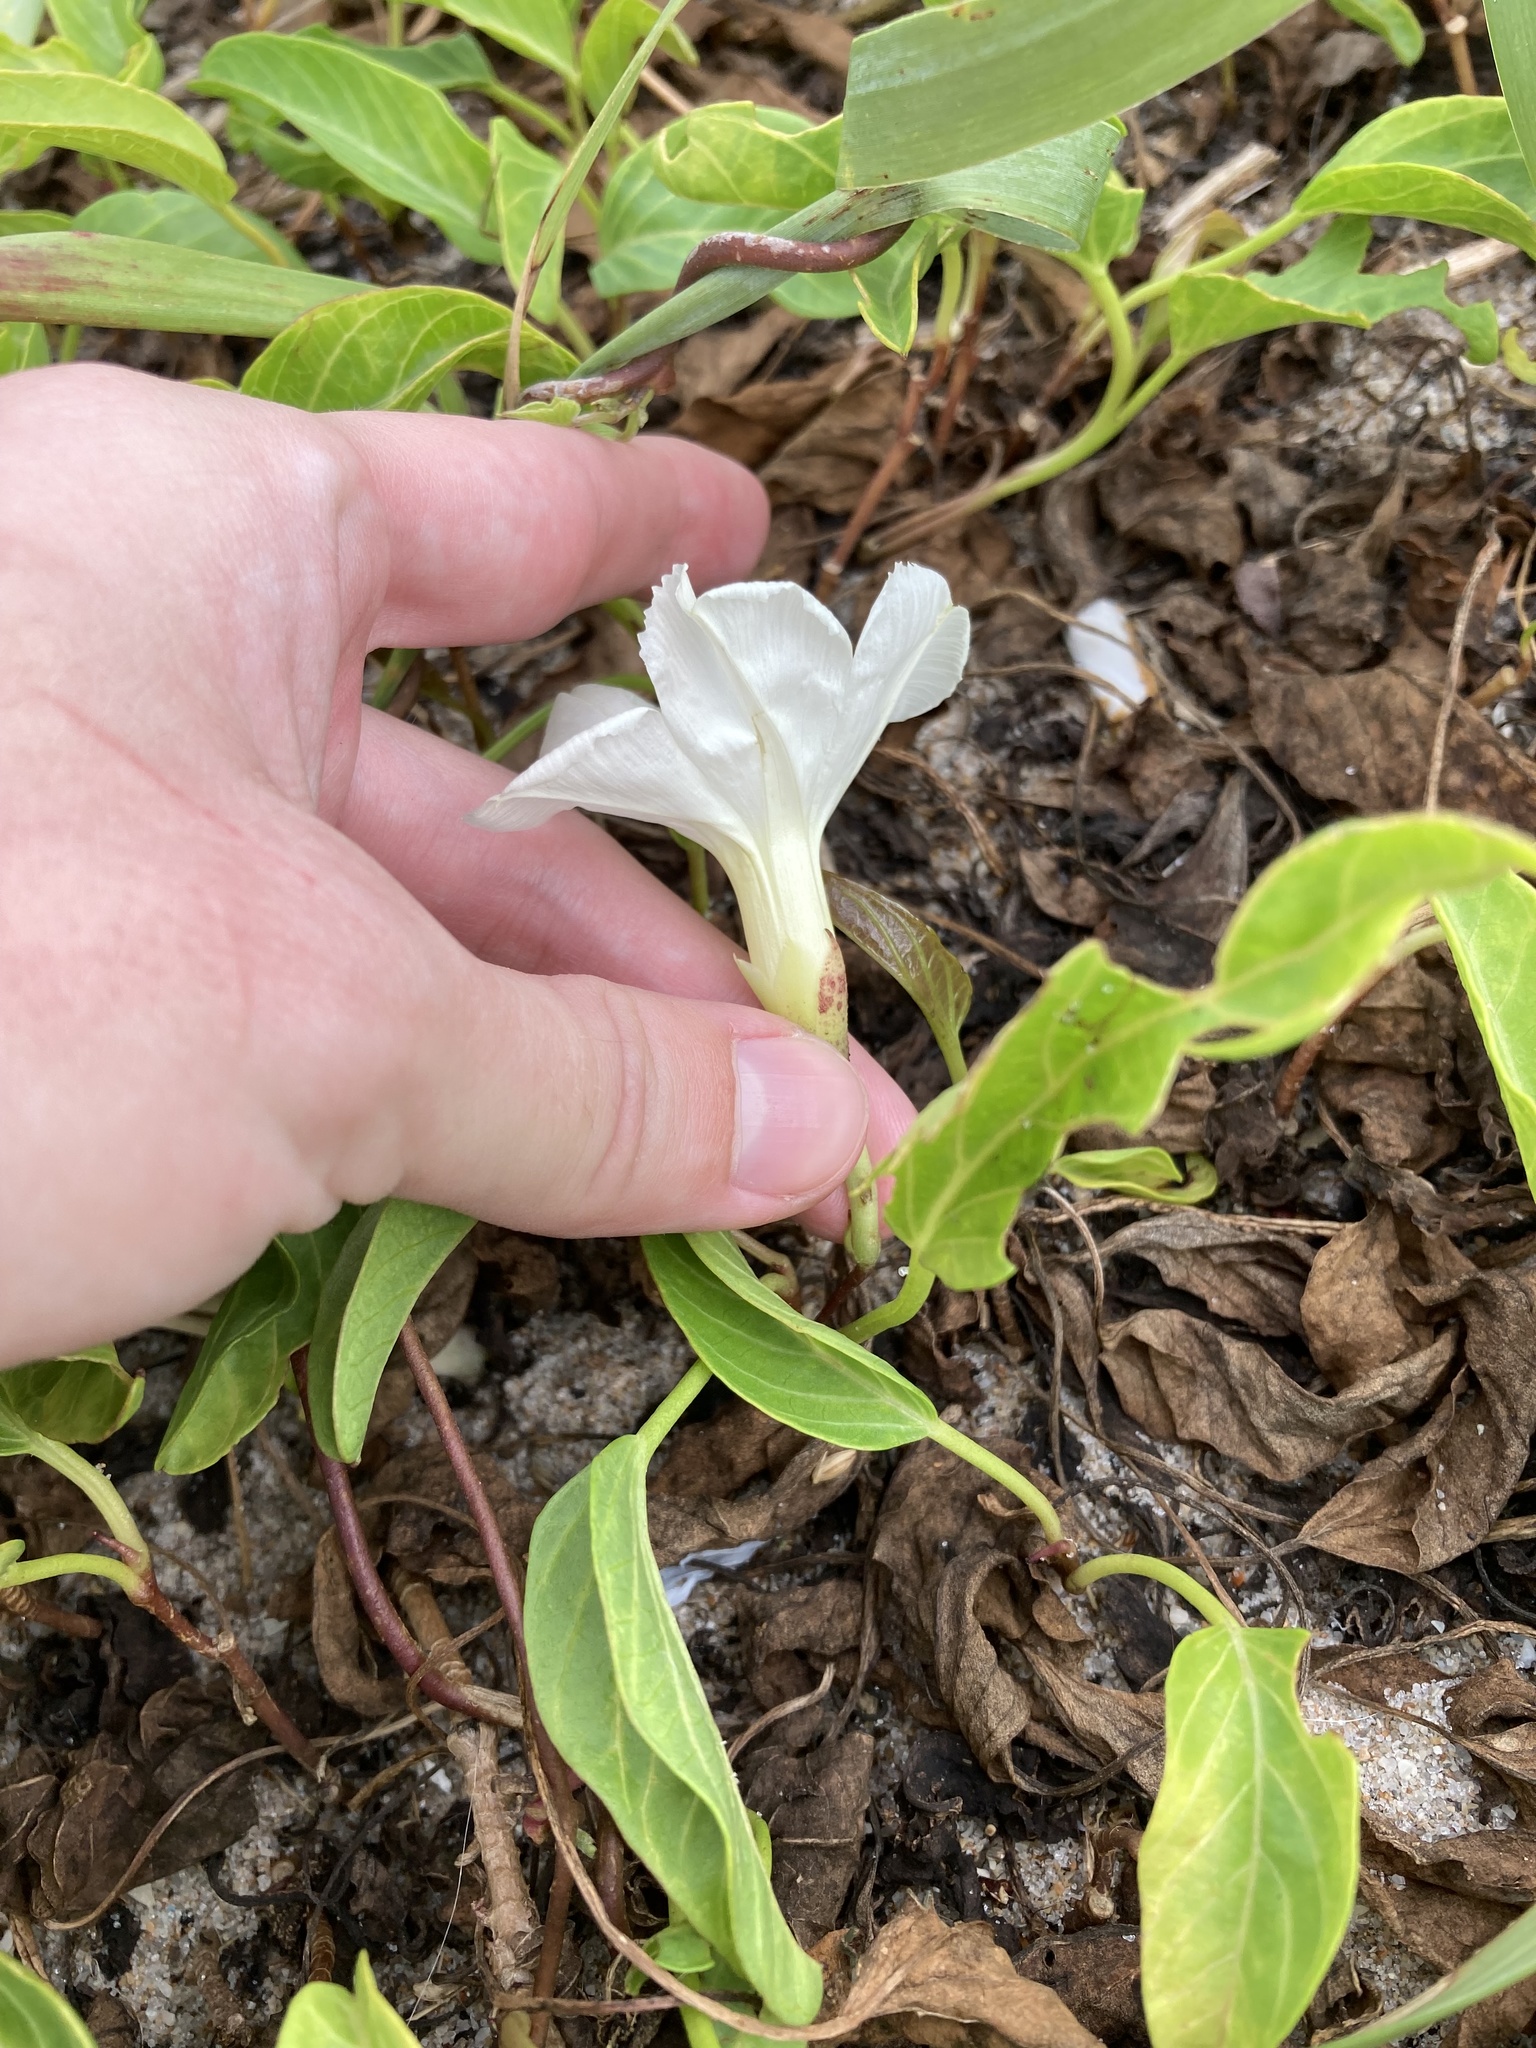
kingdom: Plantae
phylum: Tracheophyta
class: Magnoliopsida
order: Solanales
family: Convolvulaceae
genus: Ipomoea
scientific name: Ipomoea imperati
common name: Fiddle-leaf morning-glory
